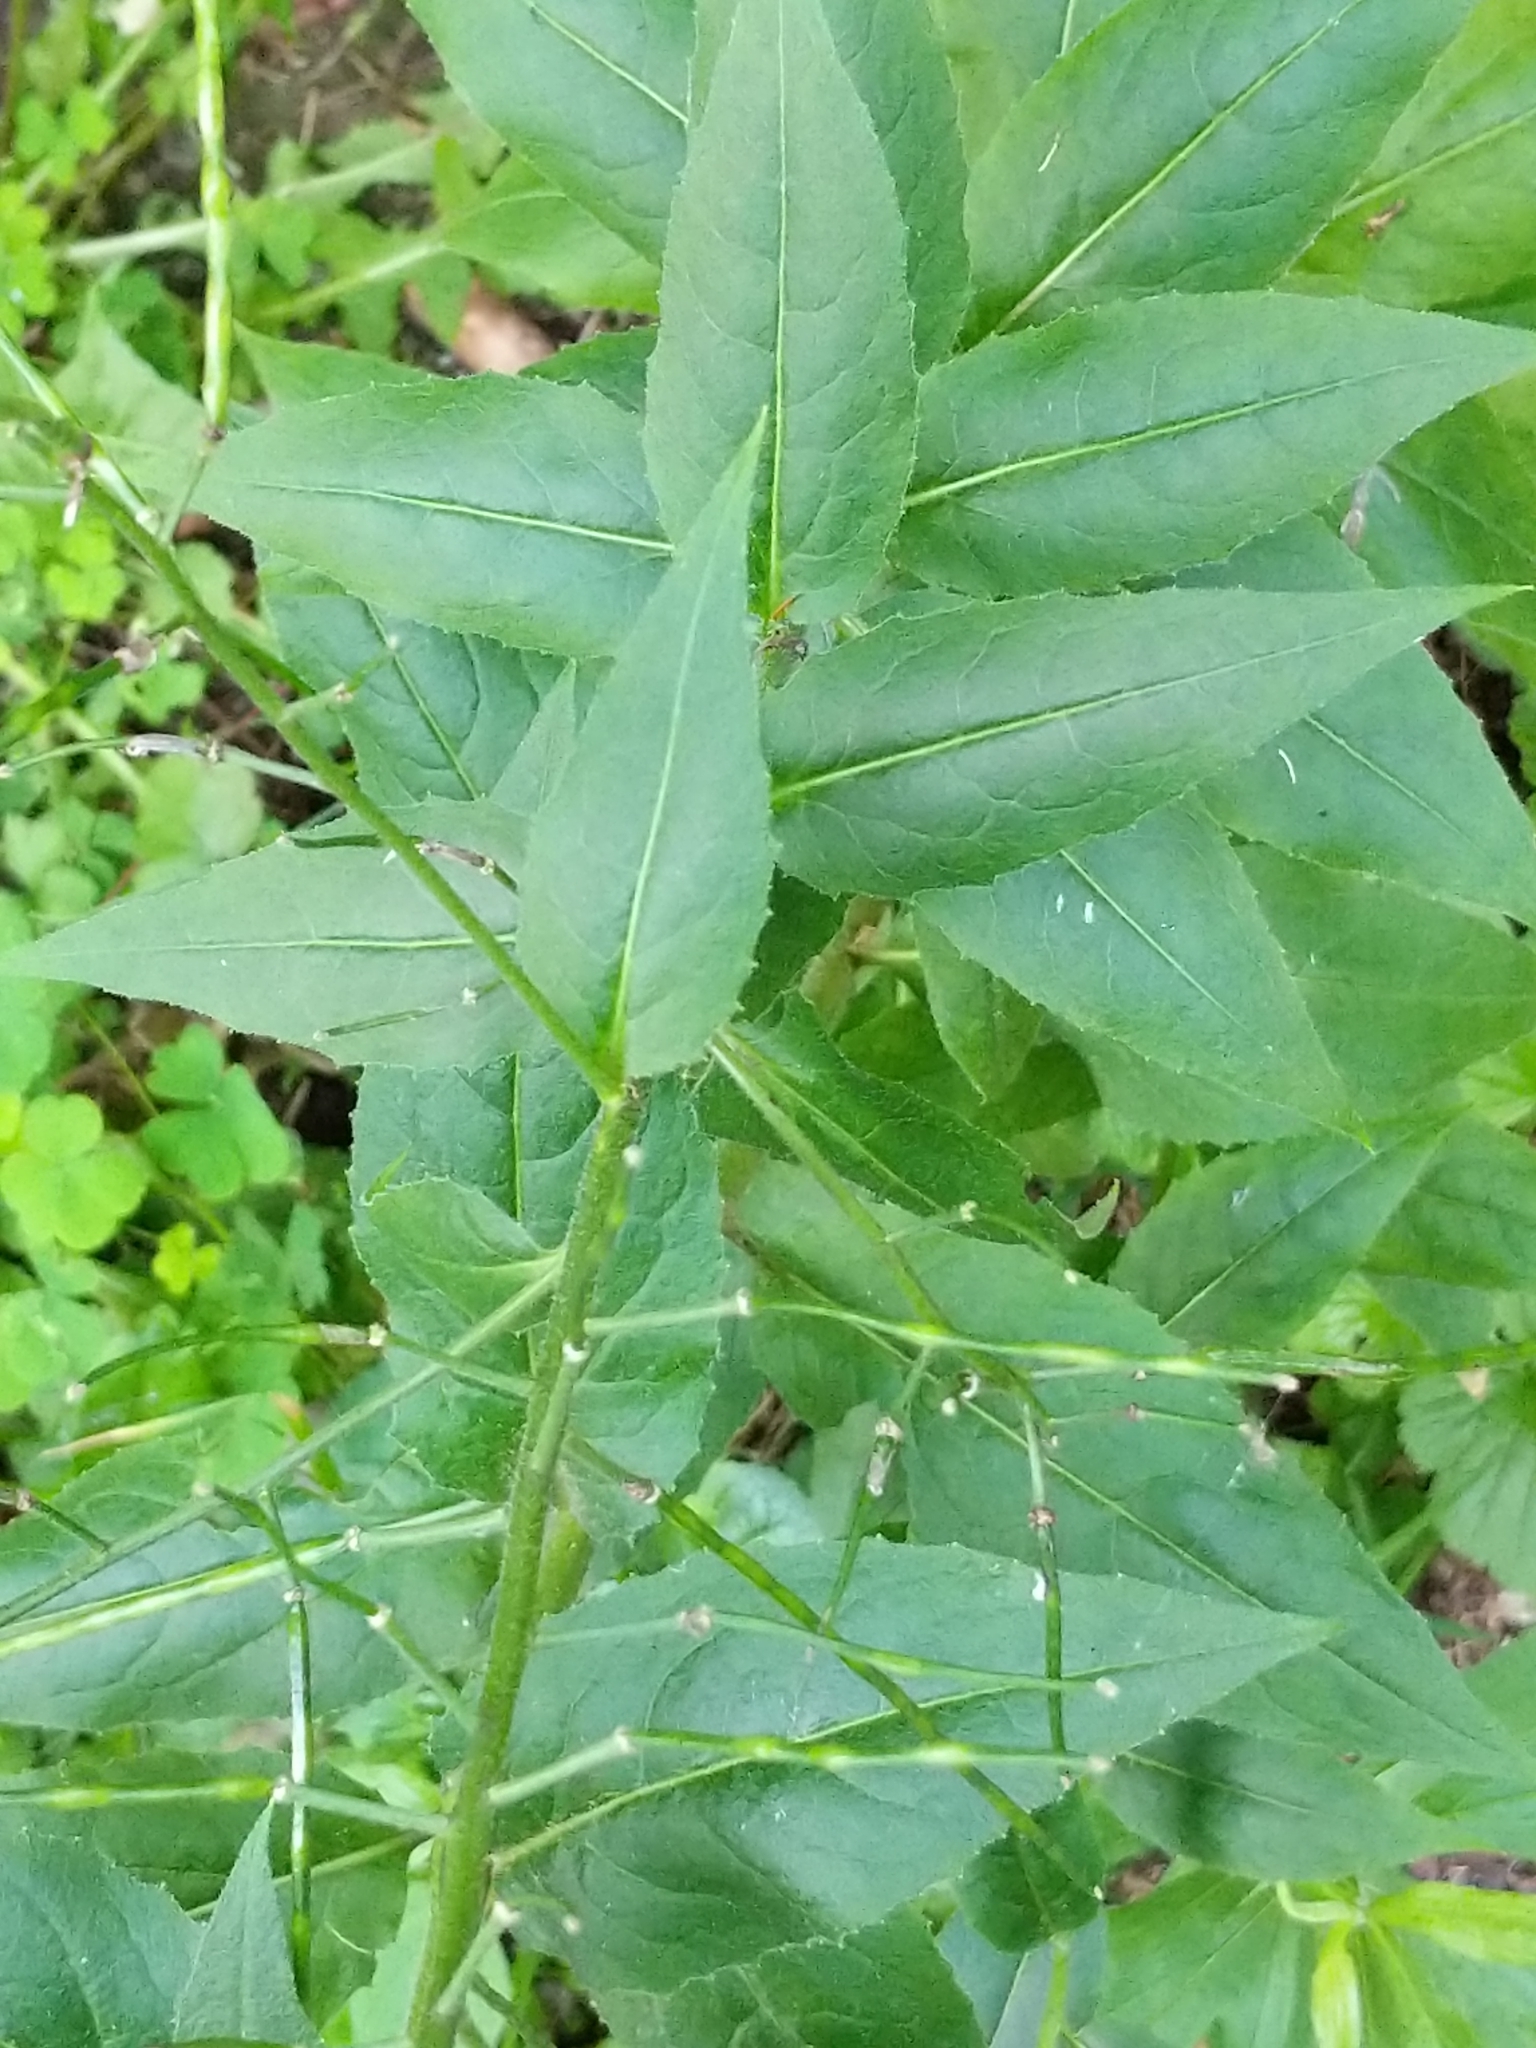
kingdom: Plantae
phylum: Tracheophyta
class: Magnoliopsida
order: Brassicales
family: Brassicaceae
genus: Hesperis
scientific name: Hesperis matronalis
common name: Dame's-violet
